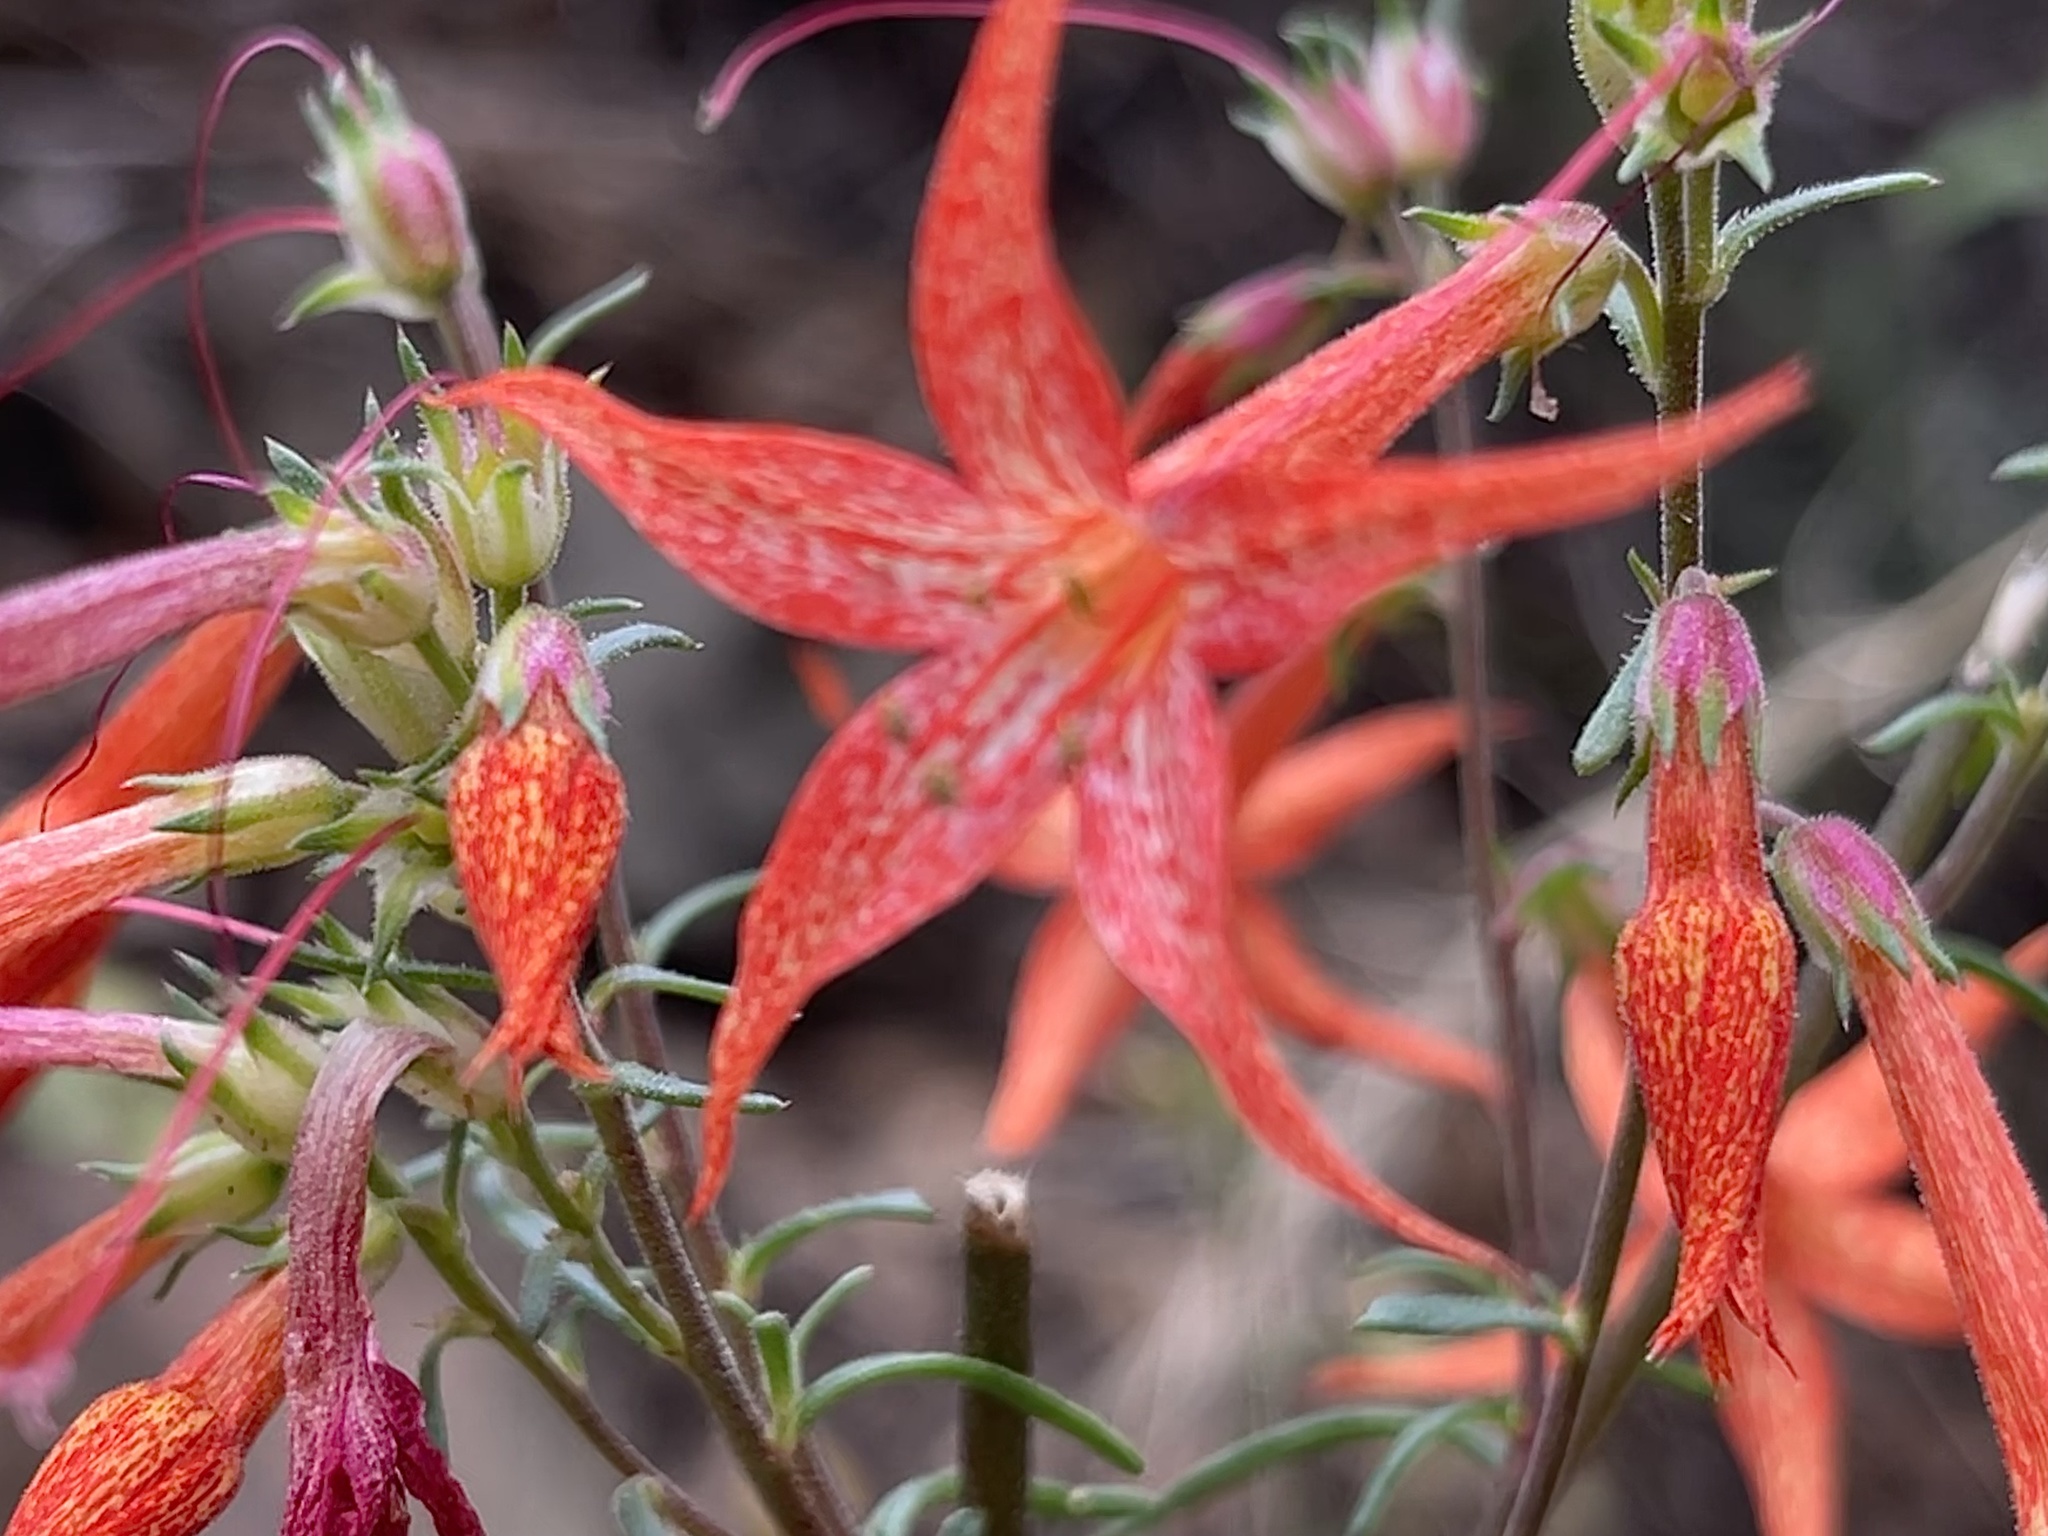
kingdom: Plantae
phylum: Tracheophyta
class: Magnoliopsida
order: Ericales
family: Polemoniaceae
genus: Ipomopsis
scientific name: Ipomopsis aggregata
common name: Scarlet gilia
